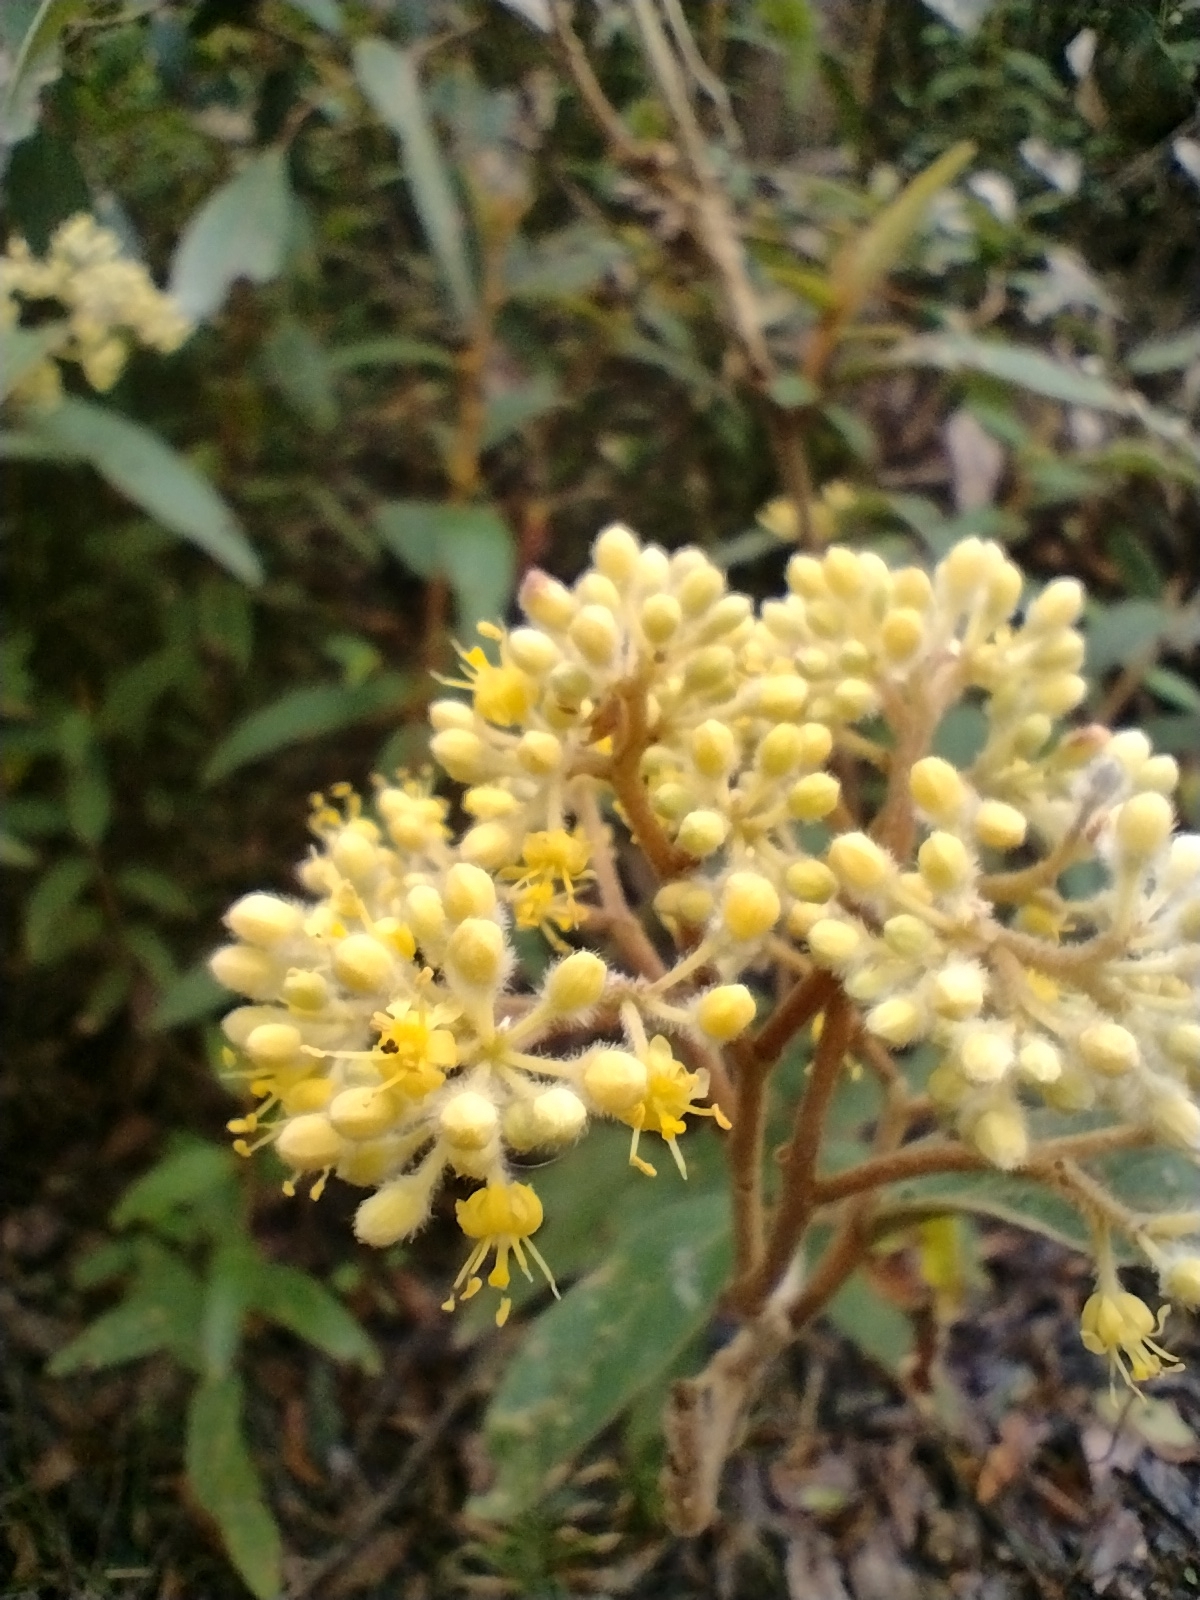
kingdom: Plantae
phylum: Tracheophyta
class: Magnoliopsida
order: Rosales
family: Rhamnaceae
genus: Pomaderris
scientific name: Pomaderris intermedia
